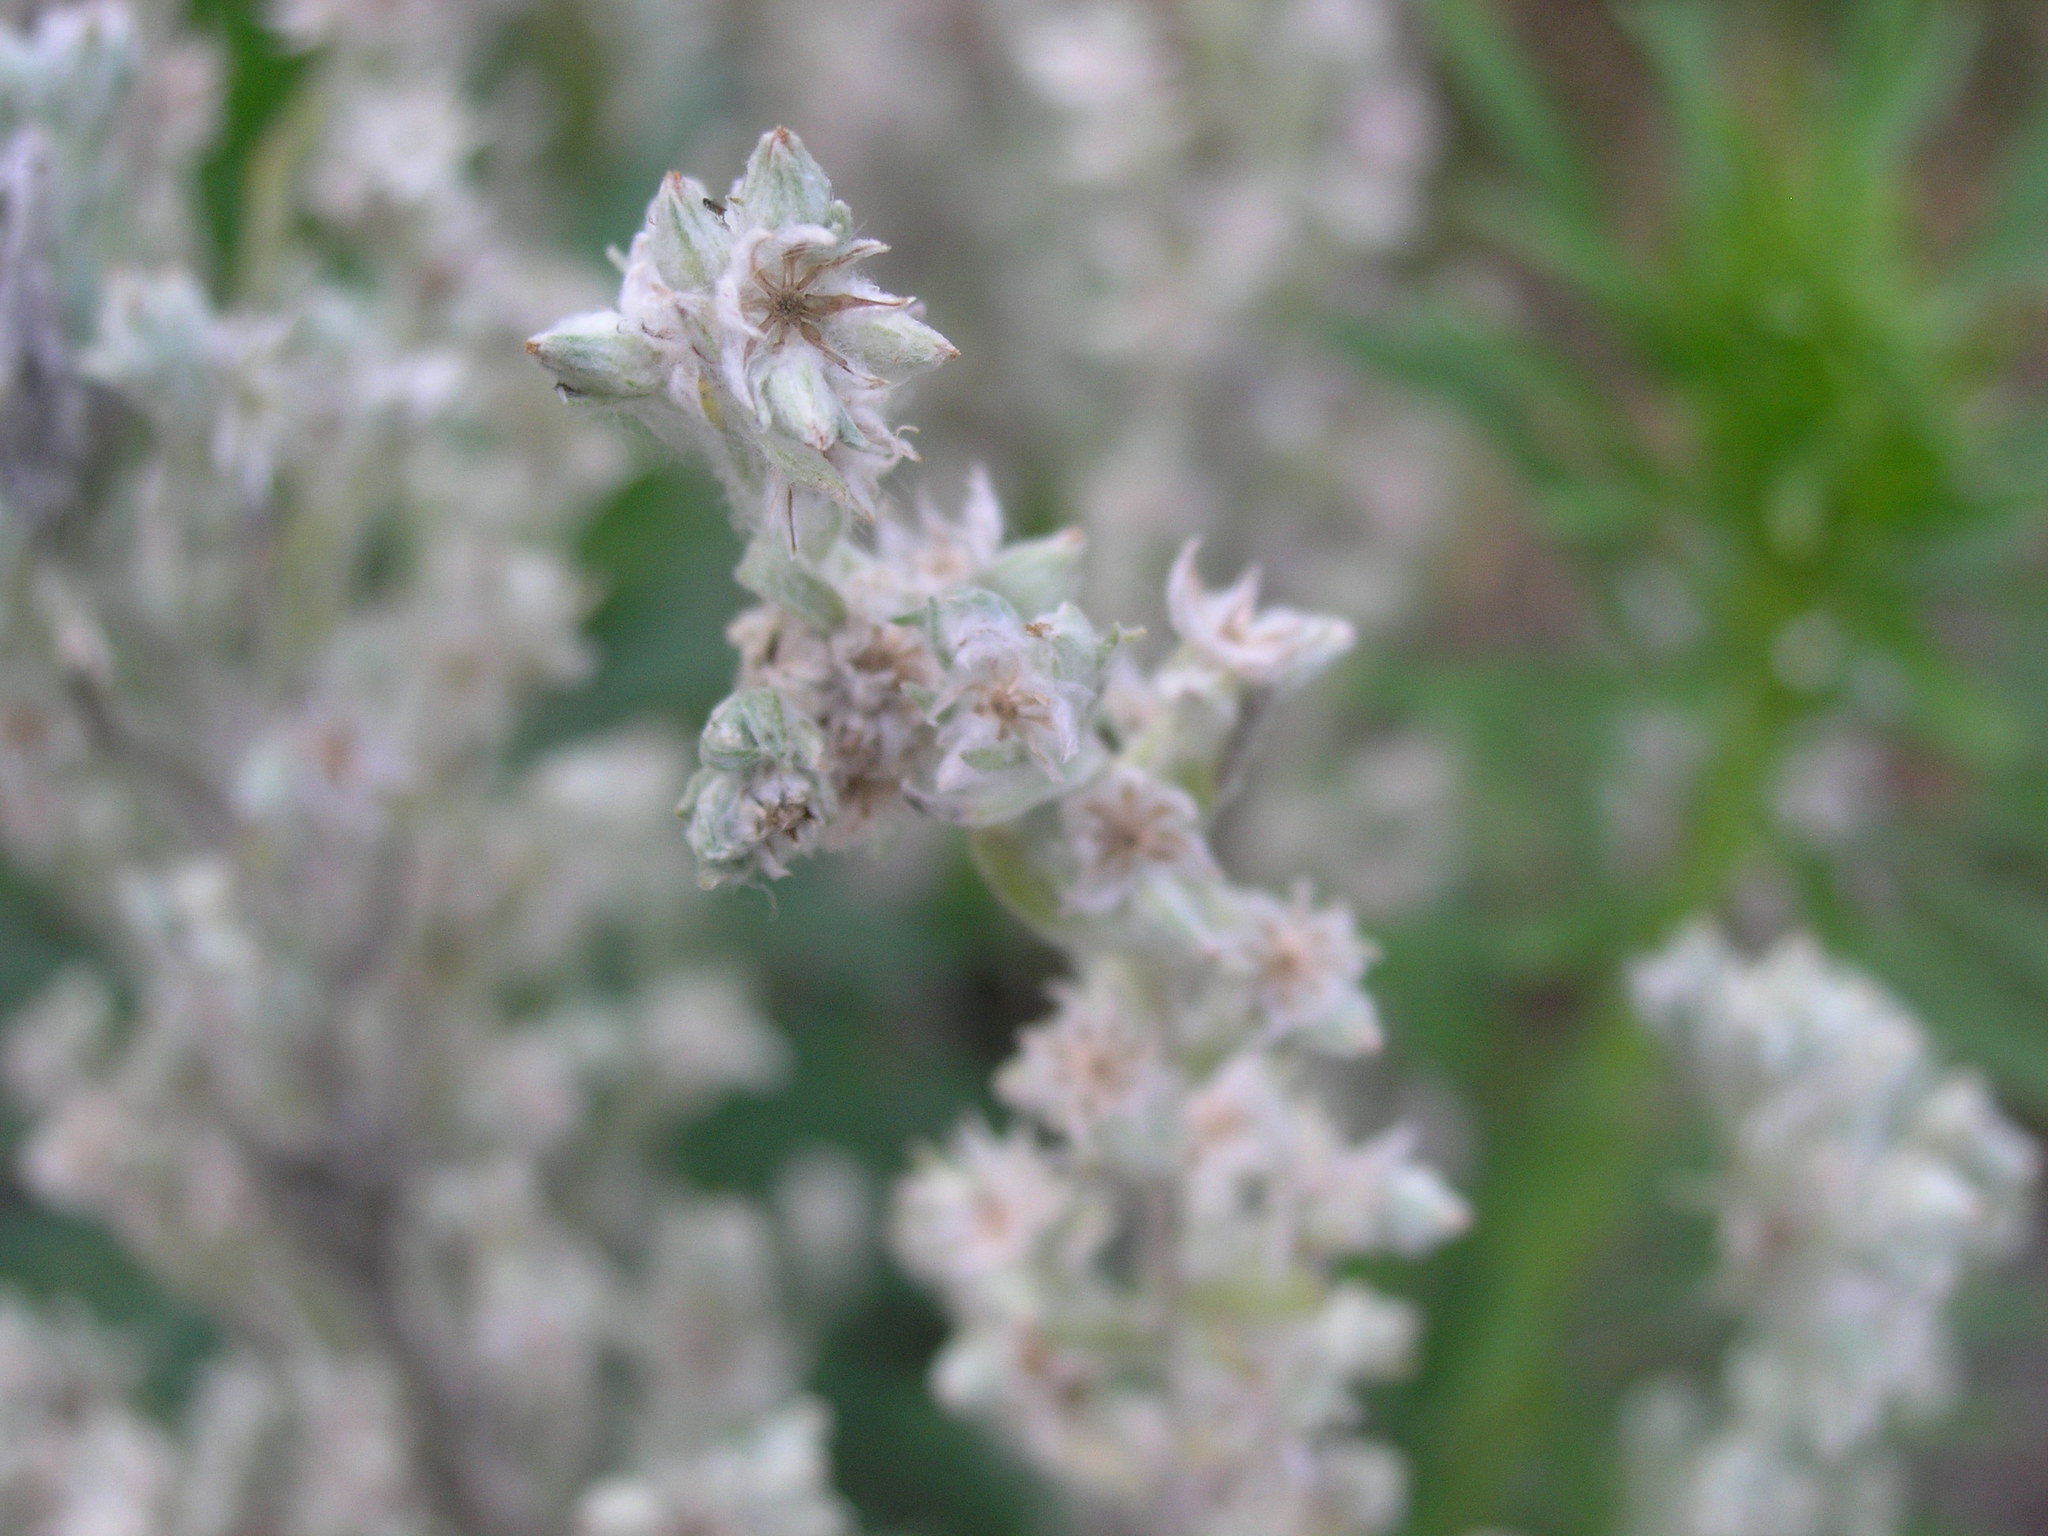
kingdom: Plantae
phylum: Tracheophyta
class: Magnoliopsida
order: Asterales
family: Asteraceae
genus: Filago
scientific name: Filago arvensis
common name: Field cudweed
